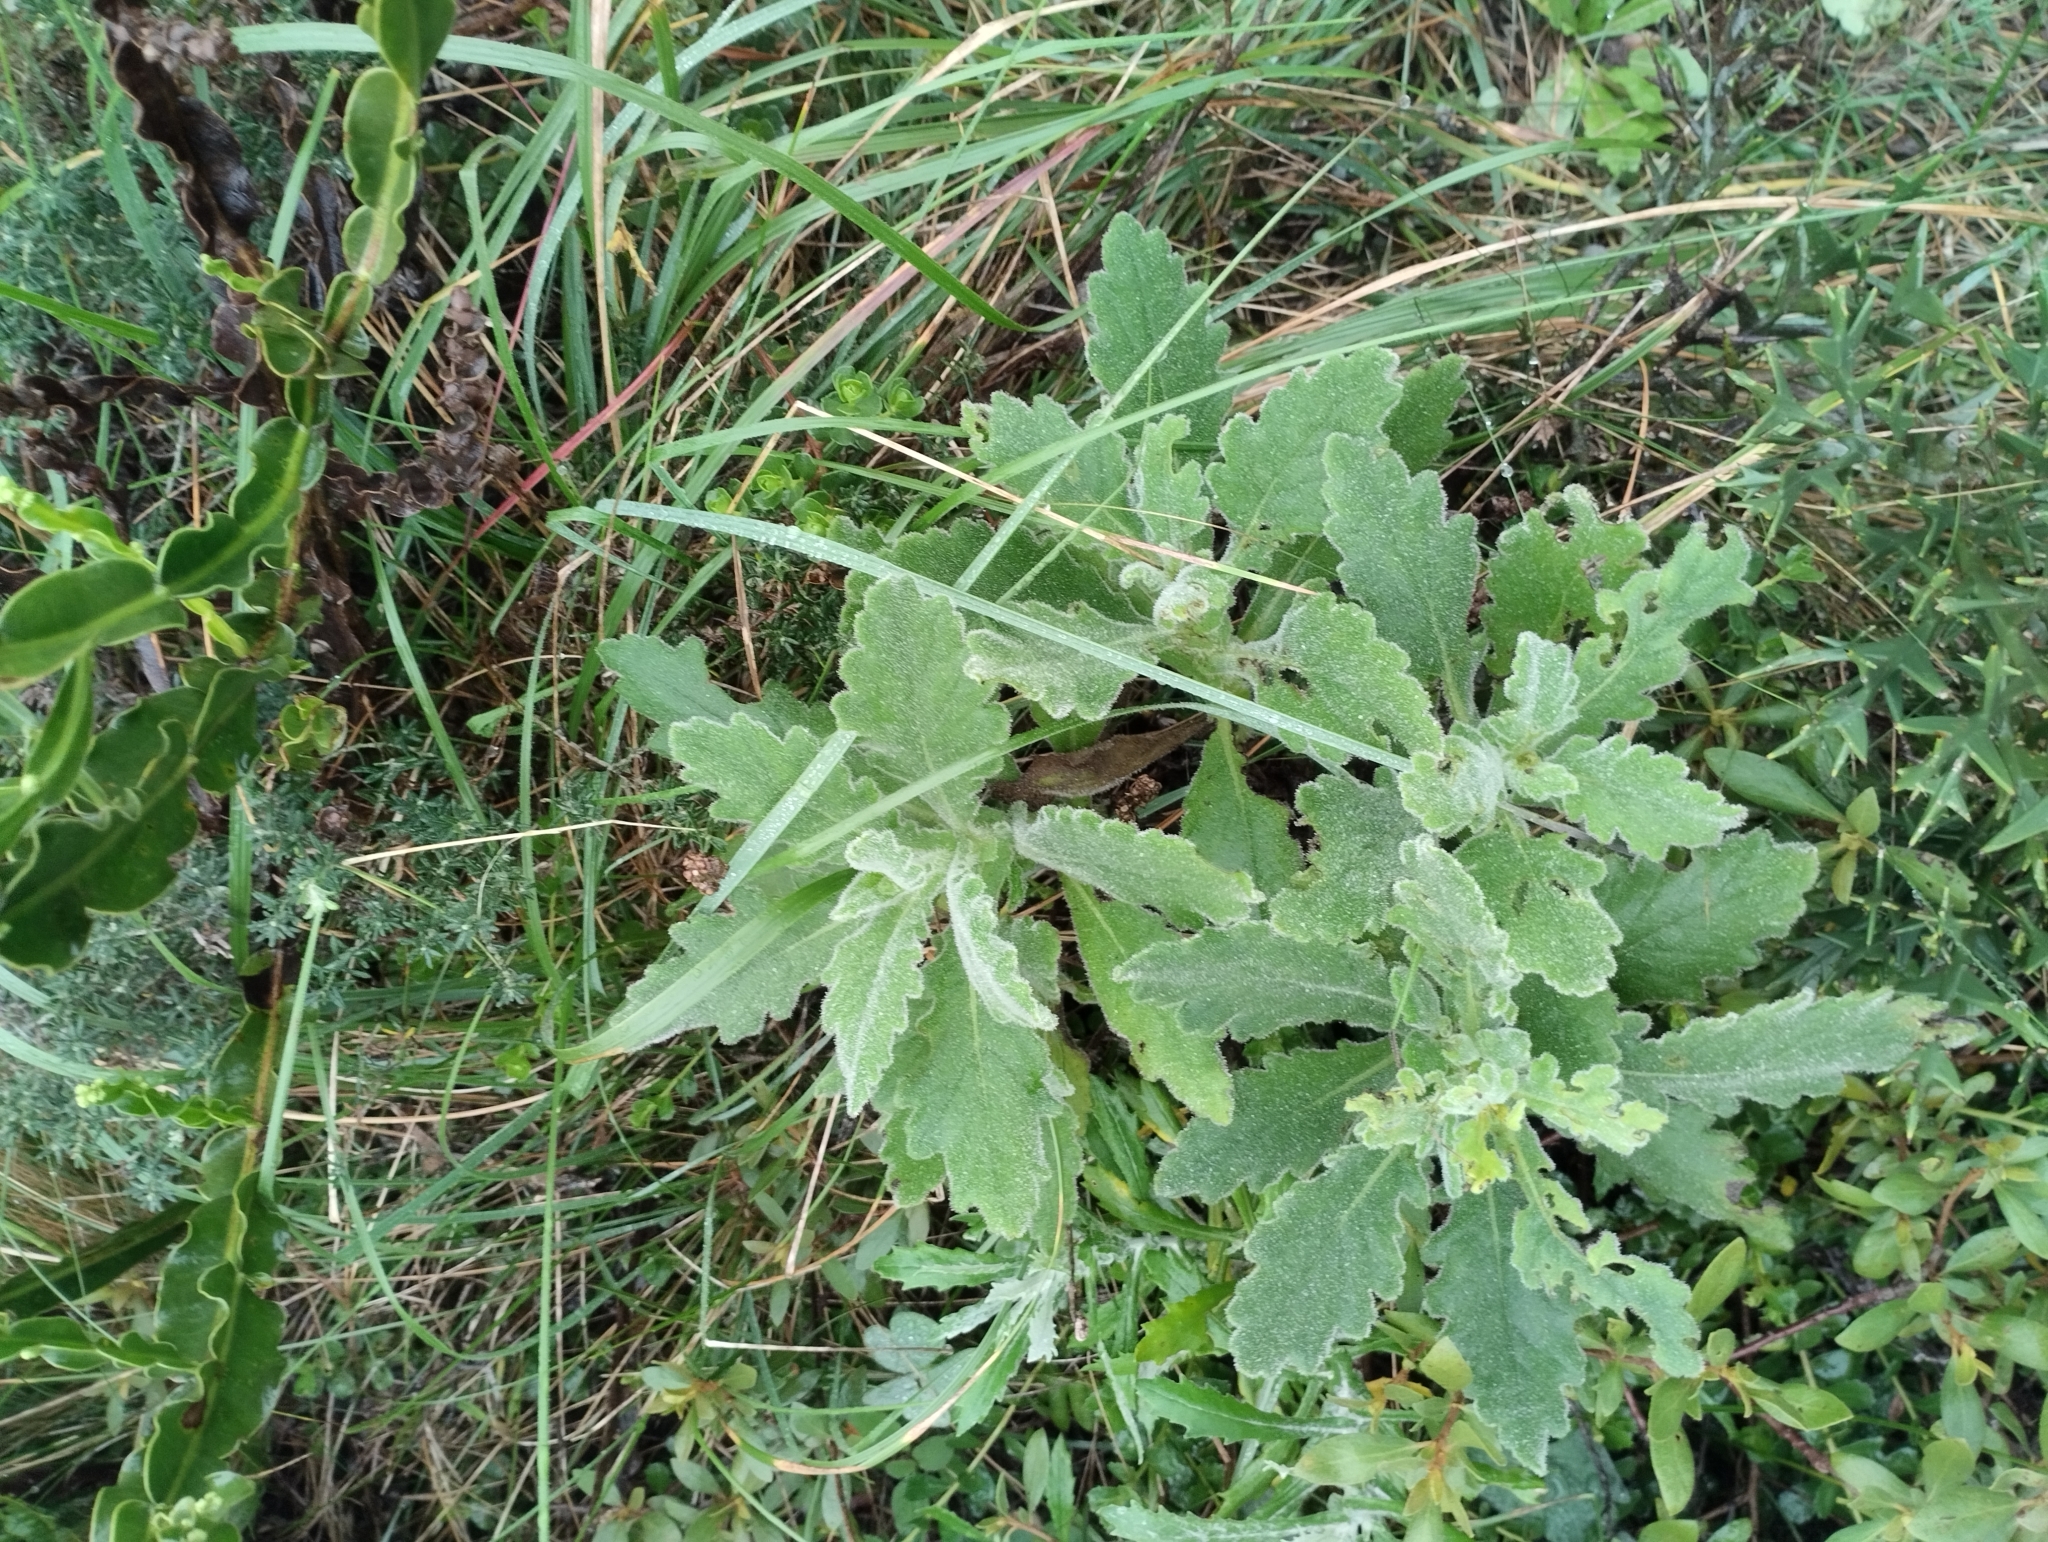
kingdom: Plantae
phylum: Tracheophyta
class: Magnoliopsida
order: Asterales
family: Asteraceae
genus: Senecio
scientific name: Senecio selloi
